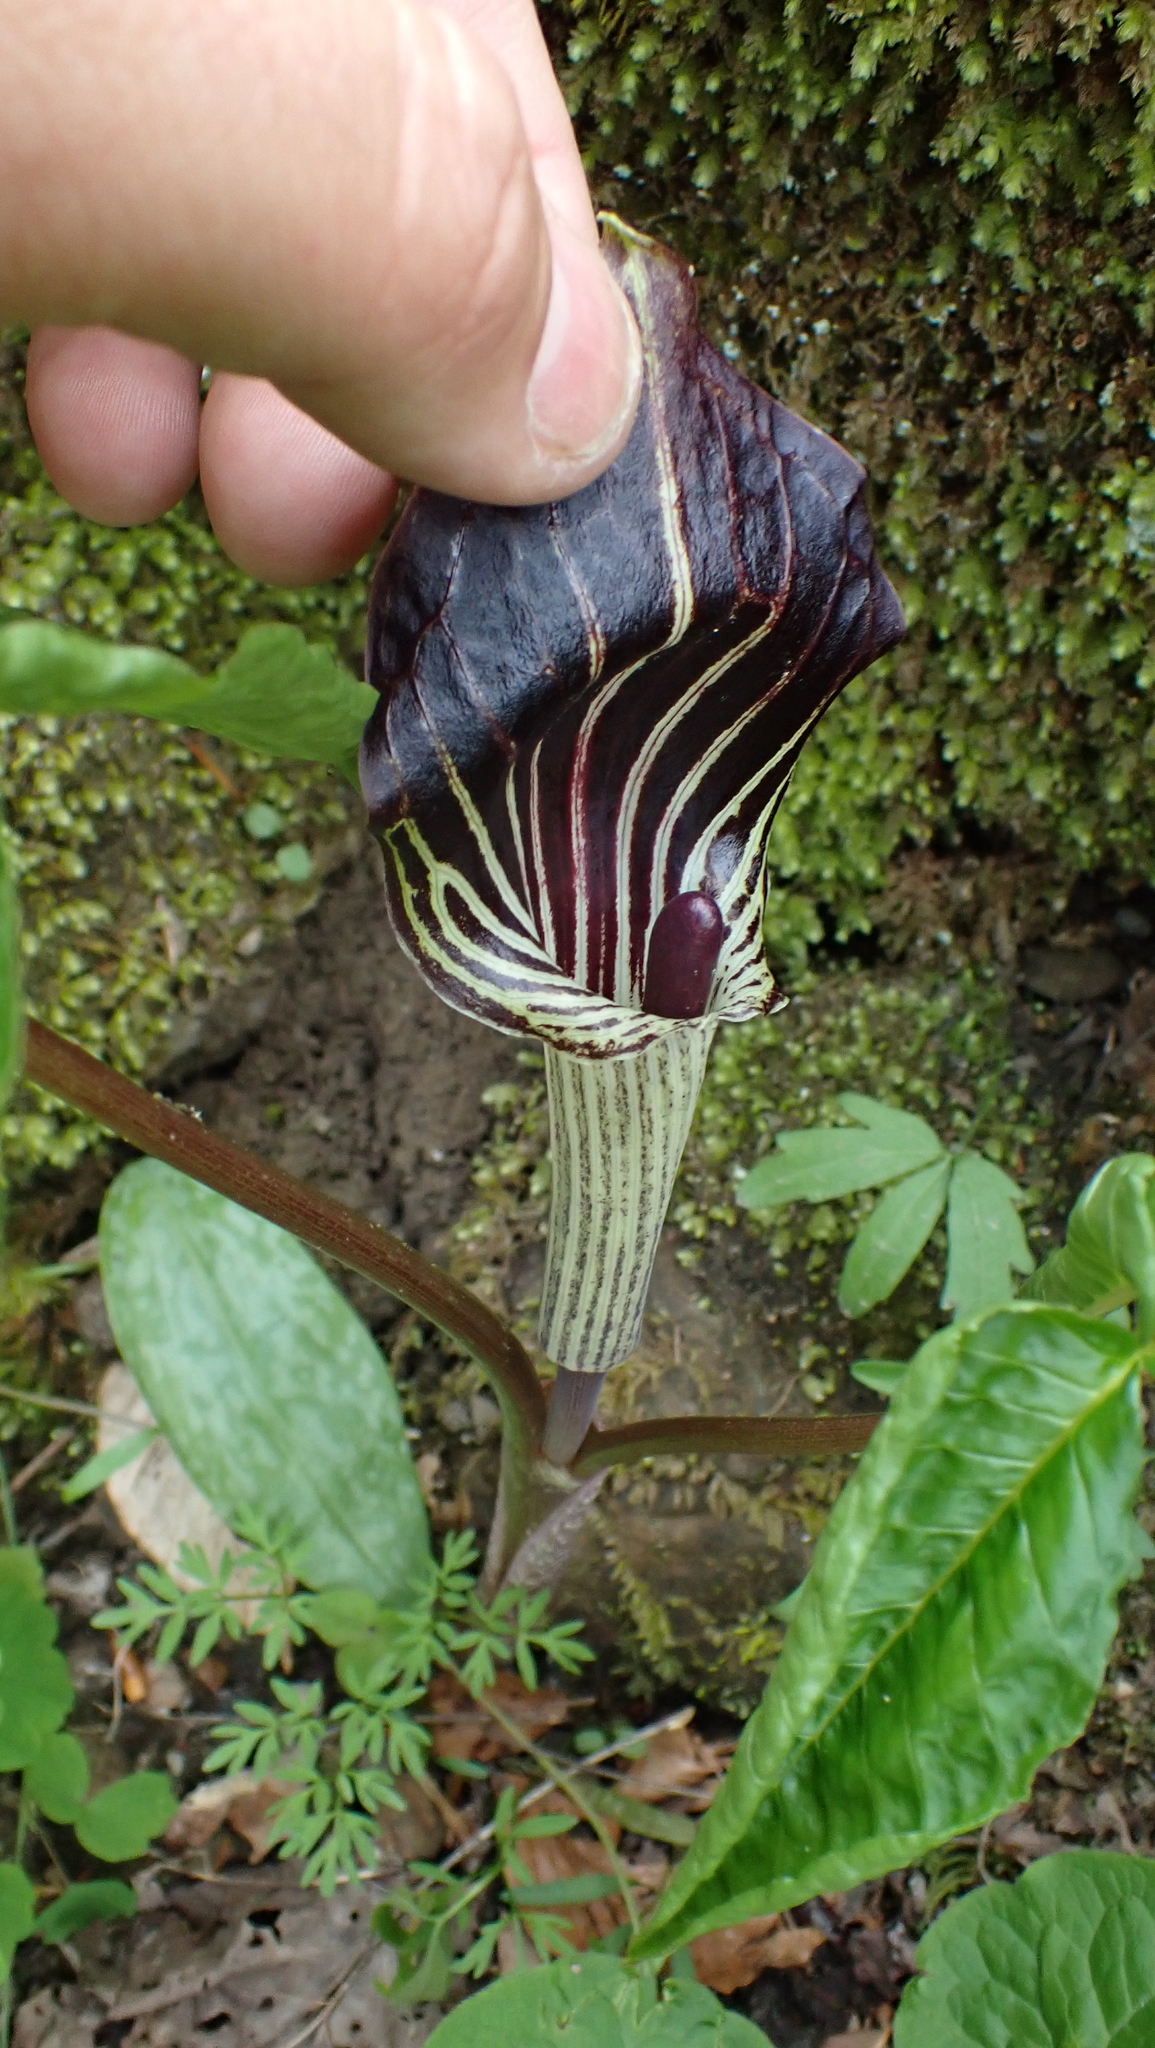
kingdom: Plantae
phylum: Tracheophyta
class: Liliopsida
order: Alismatales
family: Araceae
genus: Arisaema
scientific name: Arisaema triphyllum
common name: Jack-in-the-pulpit
